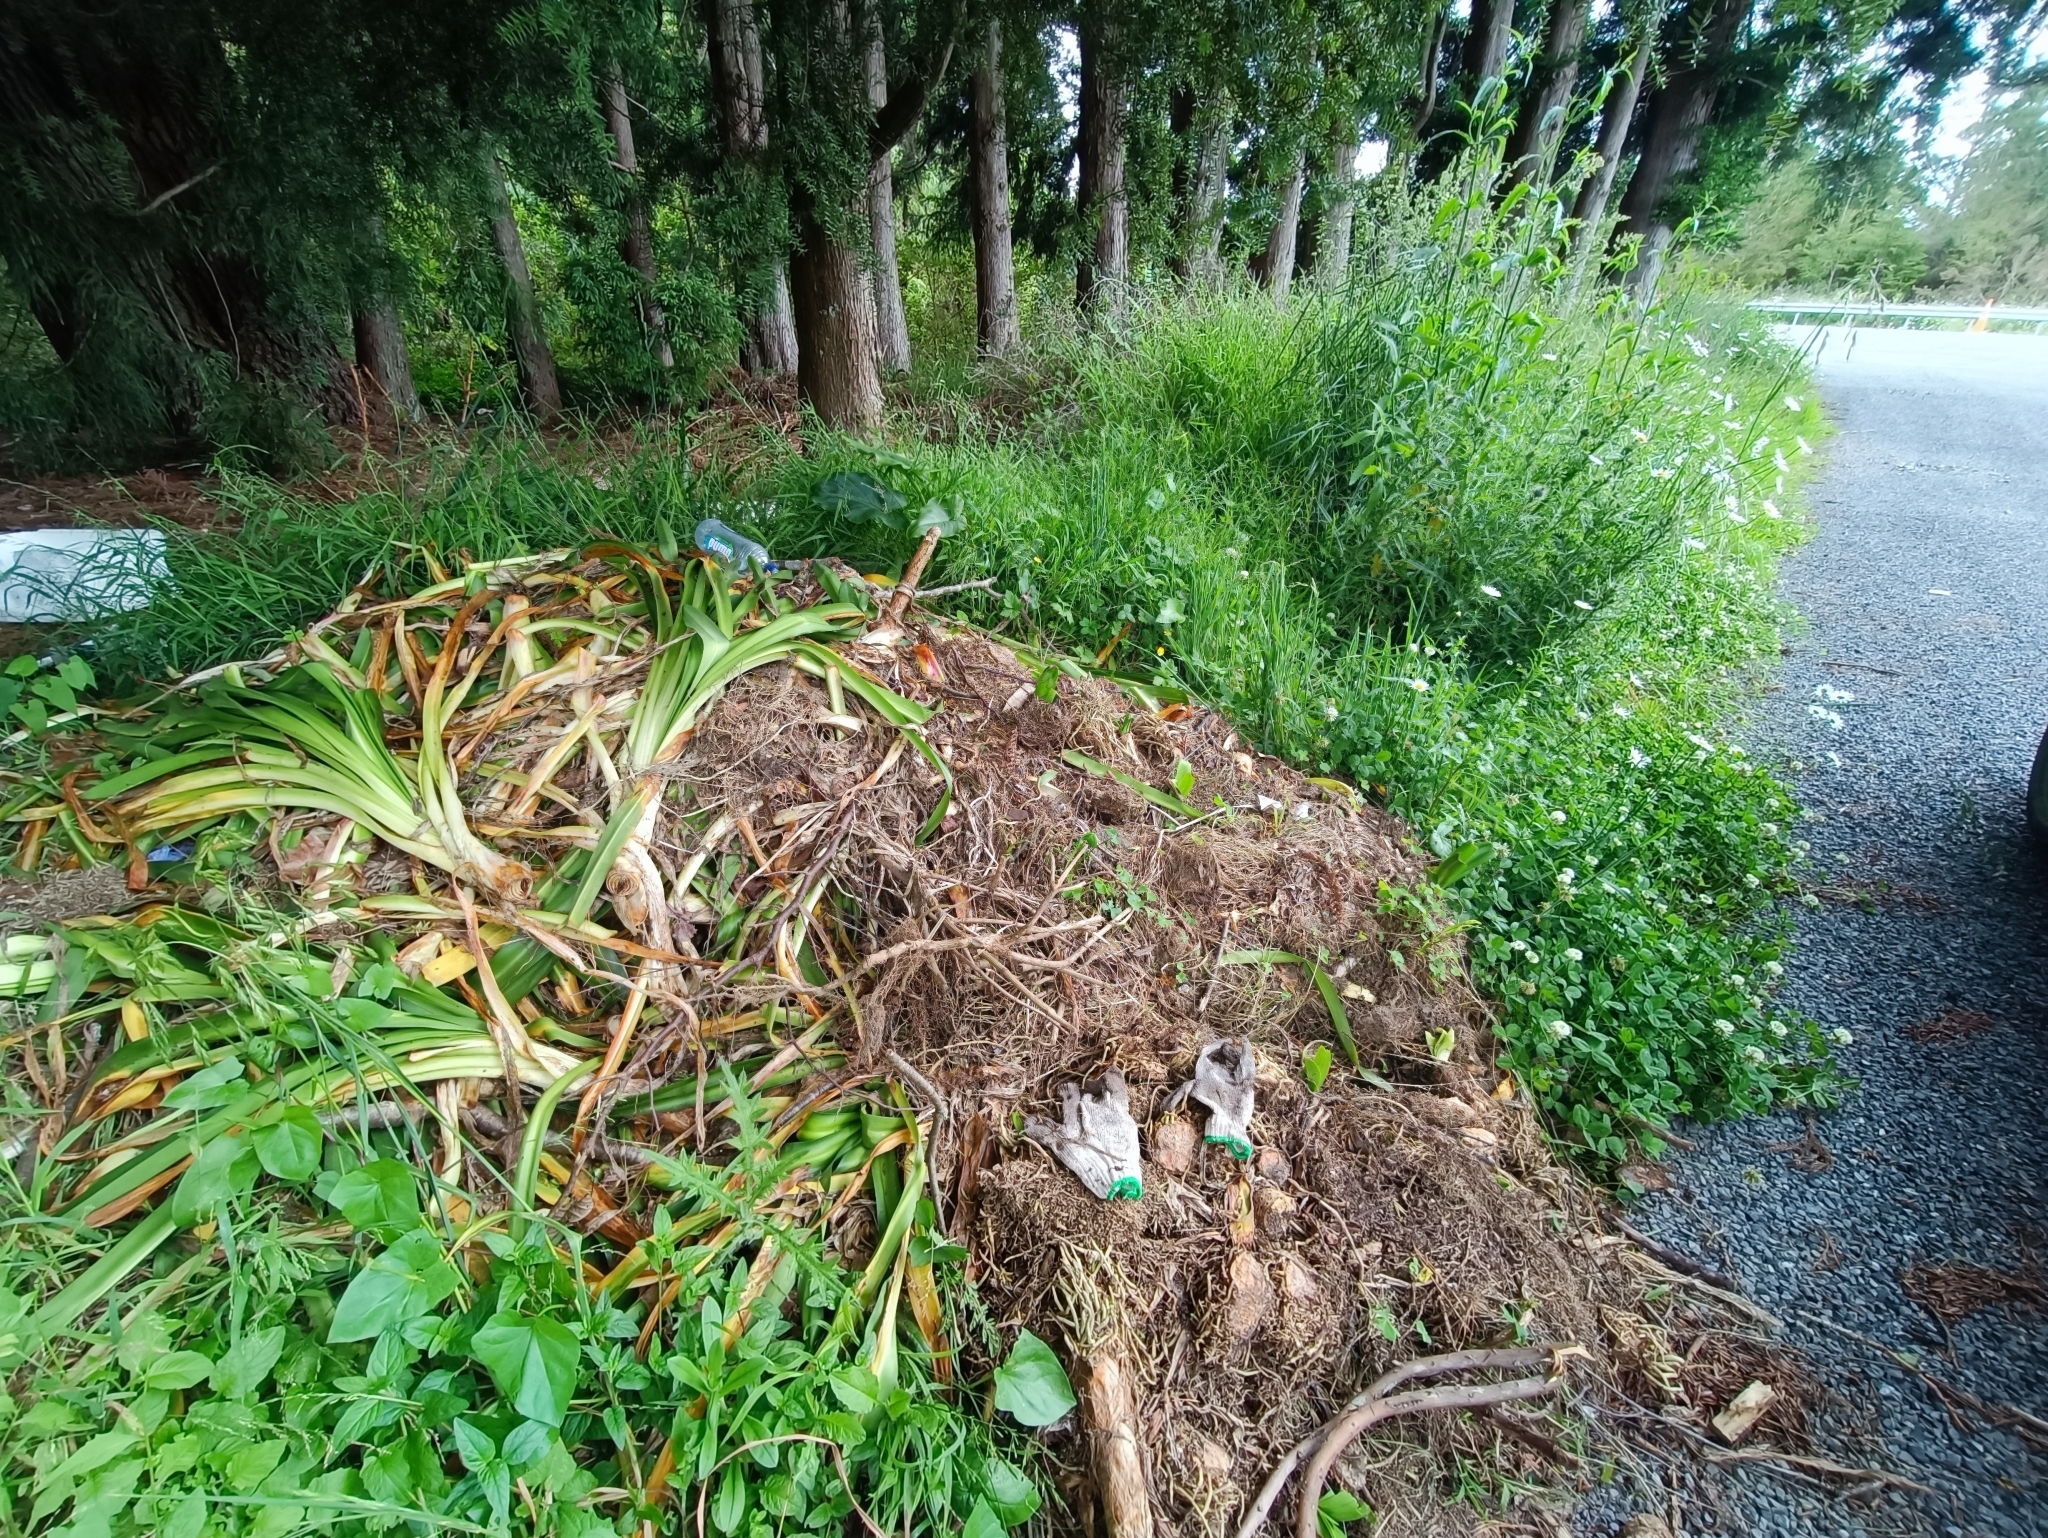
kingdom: Plantae
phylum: Tracheophyta
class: Liliopsida
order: Asparagales
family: Amaryllidaceae
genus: Agapanthus
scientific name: Agapanthus praecox
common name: African-lily
